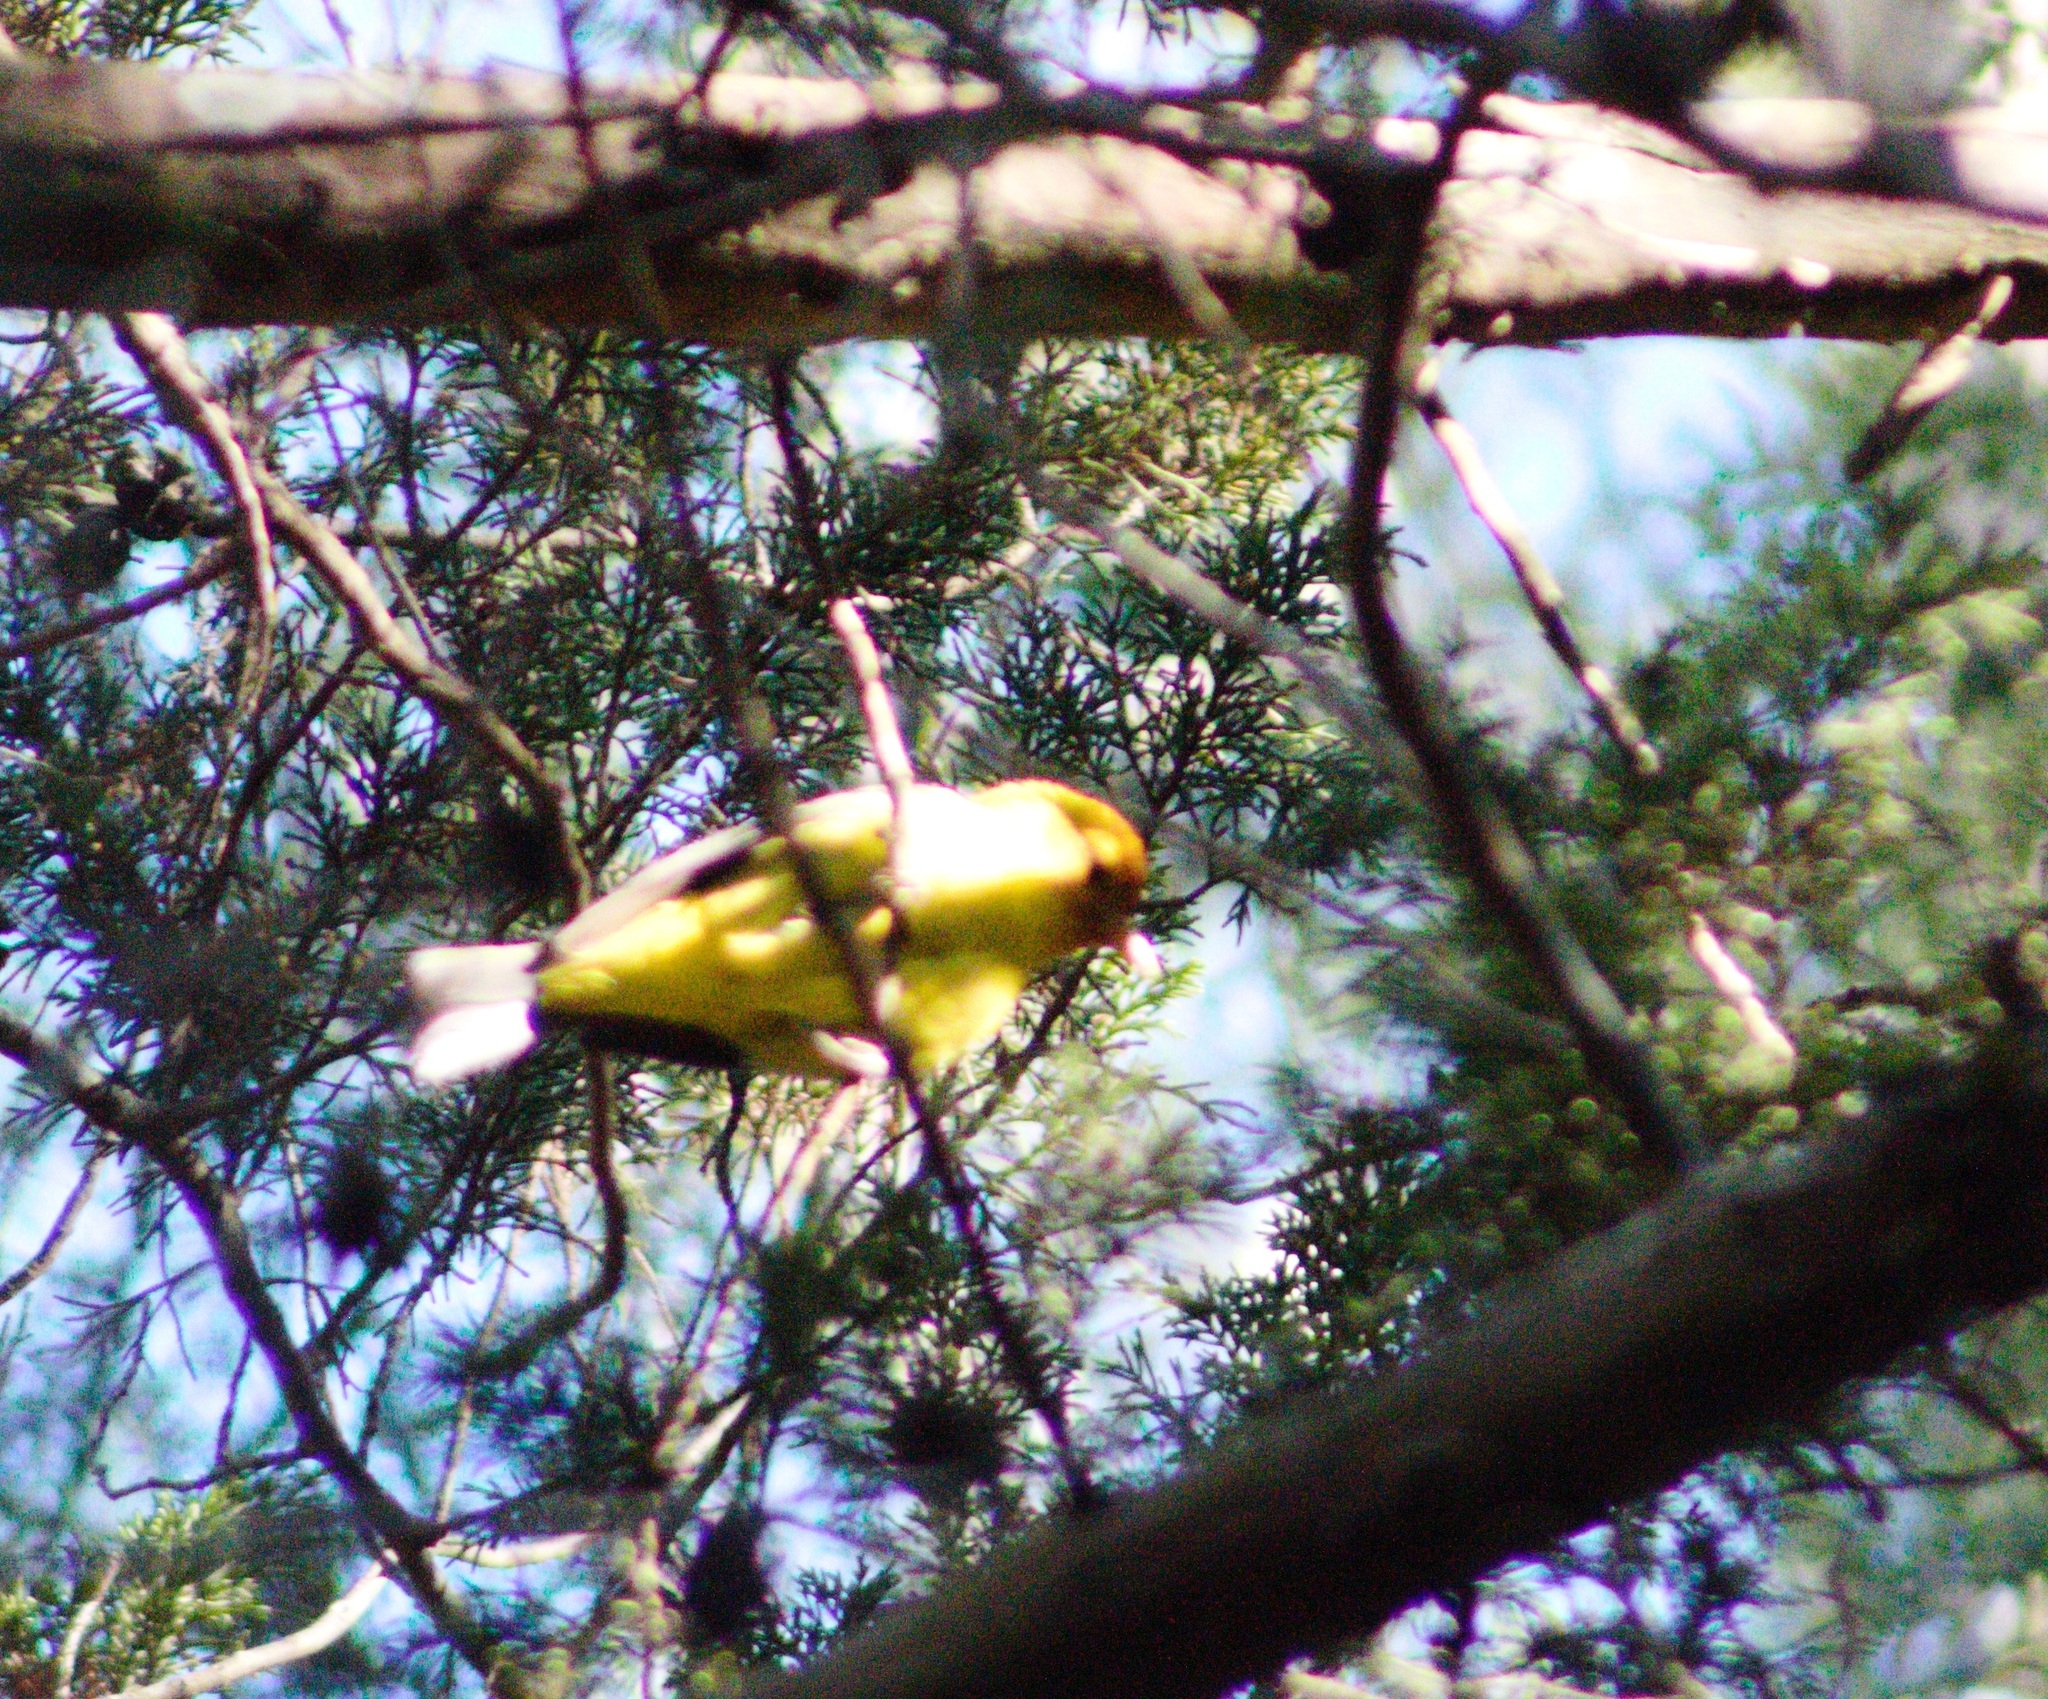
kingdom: Animalia
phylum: Chordata
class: Aves
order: Passeriformes
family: Cardinalidae
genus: Piranga
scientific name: Piranga ludoviciana
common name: Western tanager
